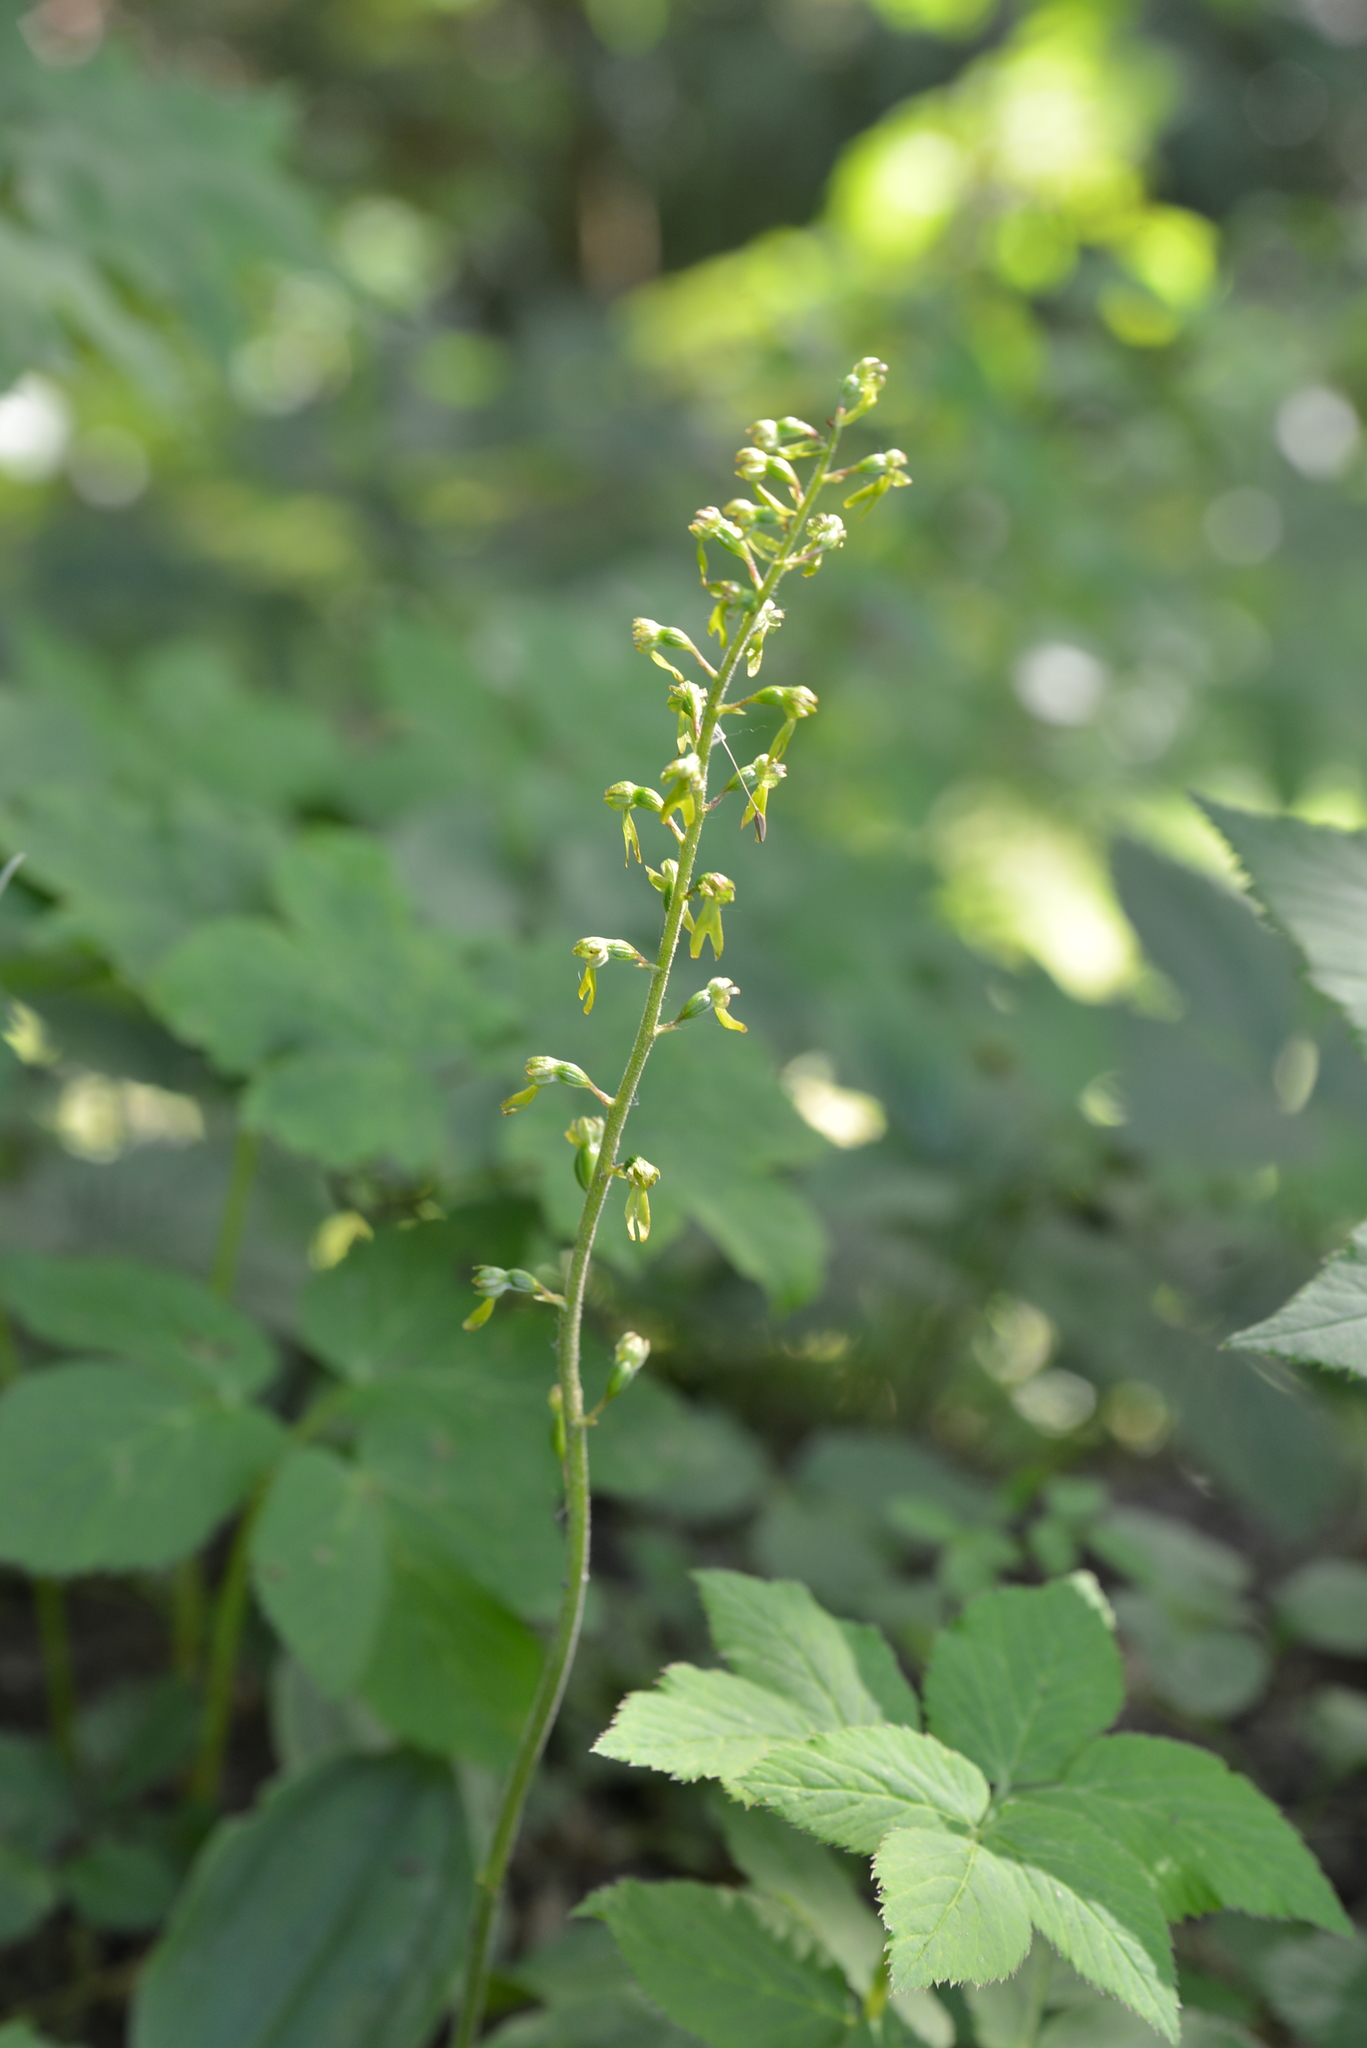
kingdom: Plantae
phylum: Tracheophyta
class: Liliopsida
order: Asparagales
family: Orchidaceae
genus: Neottia
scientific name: Neottia ovata
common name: Common twayblade
